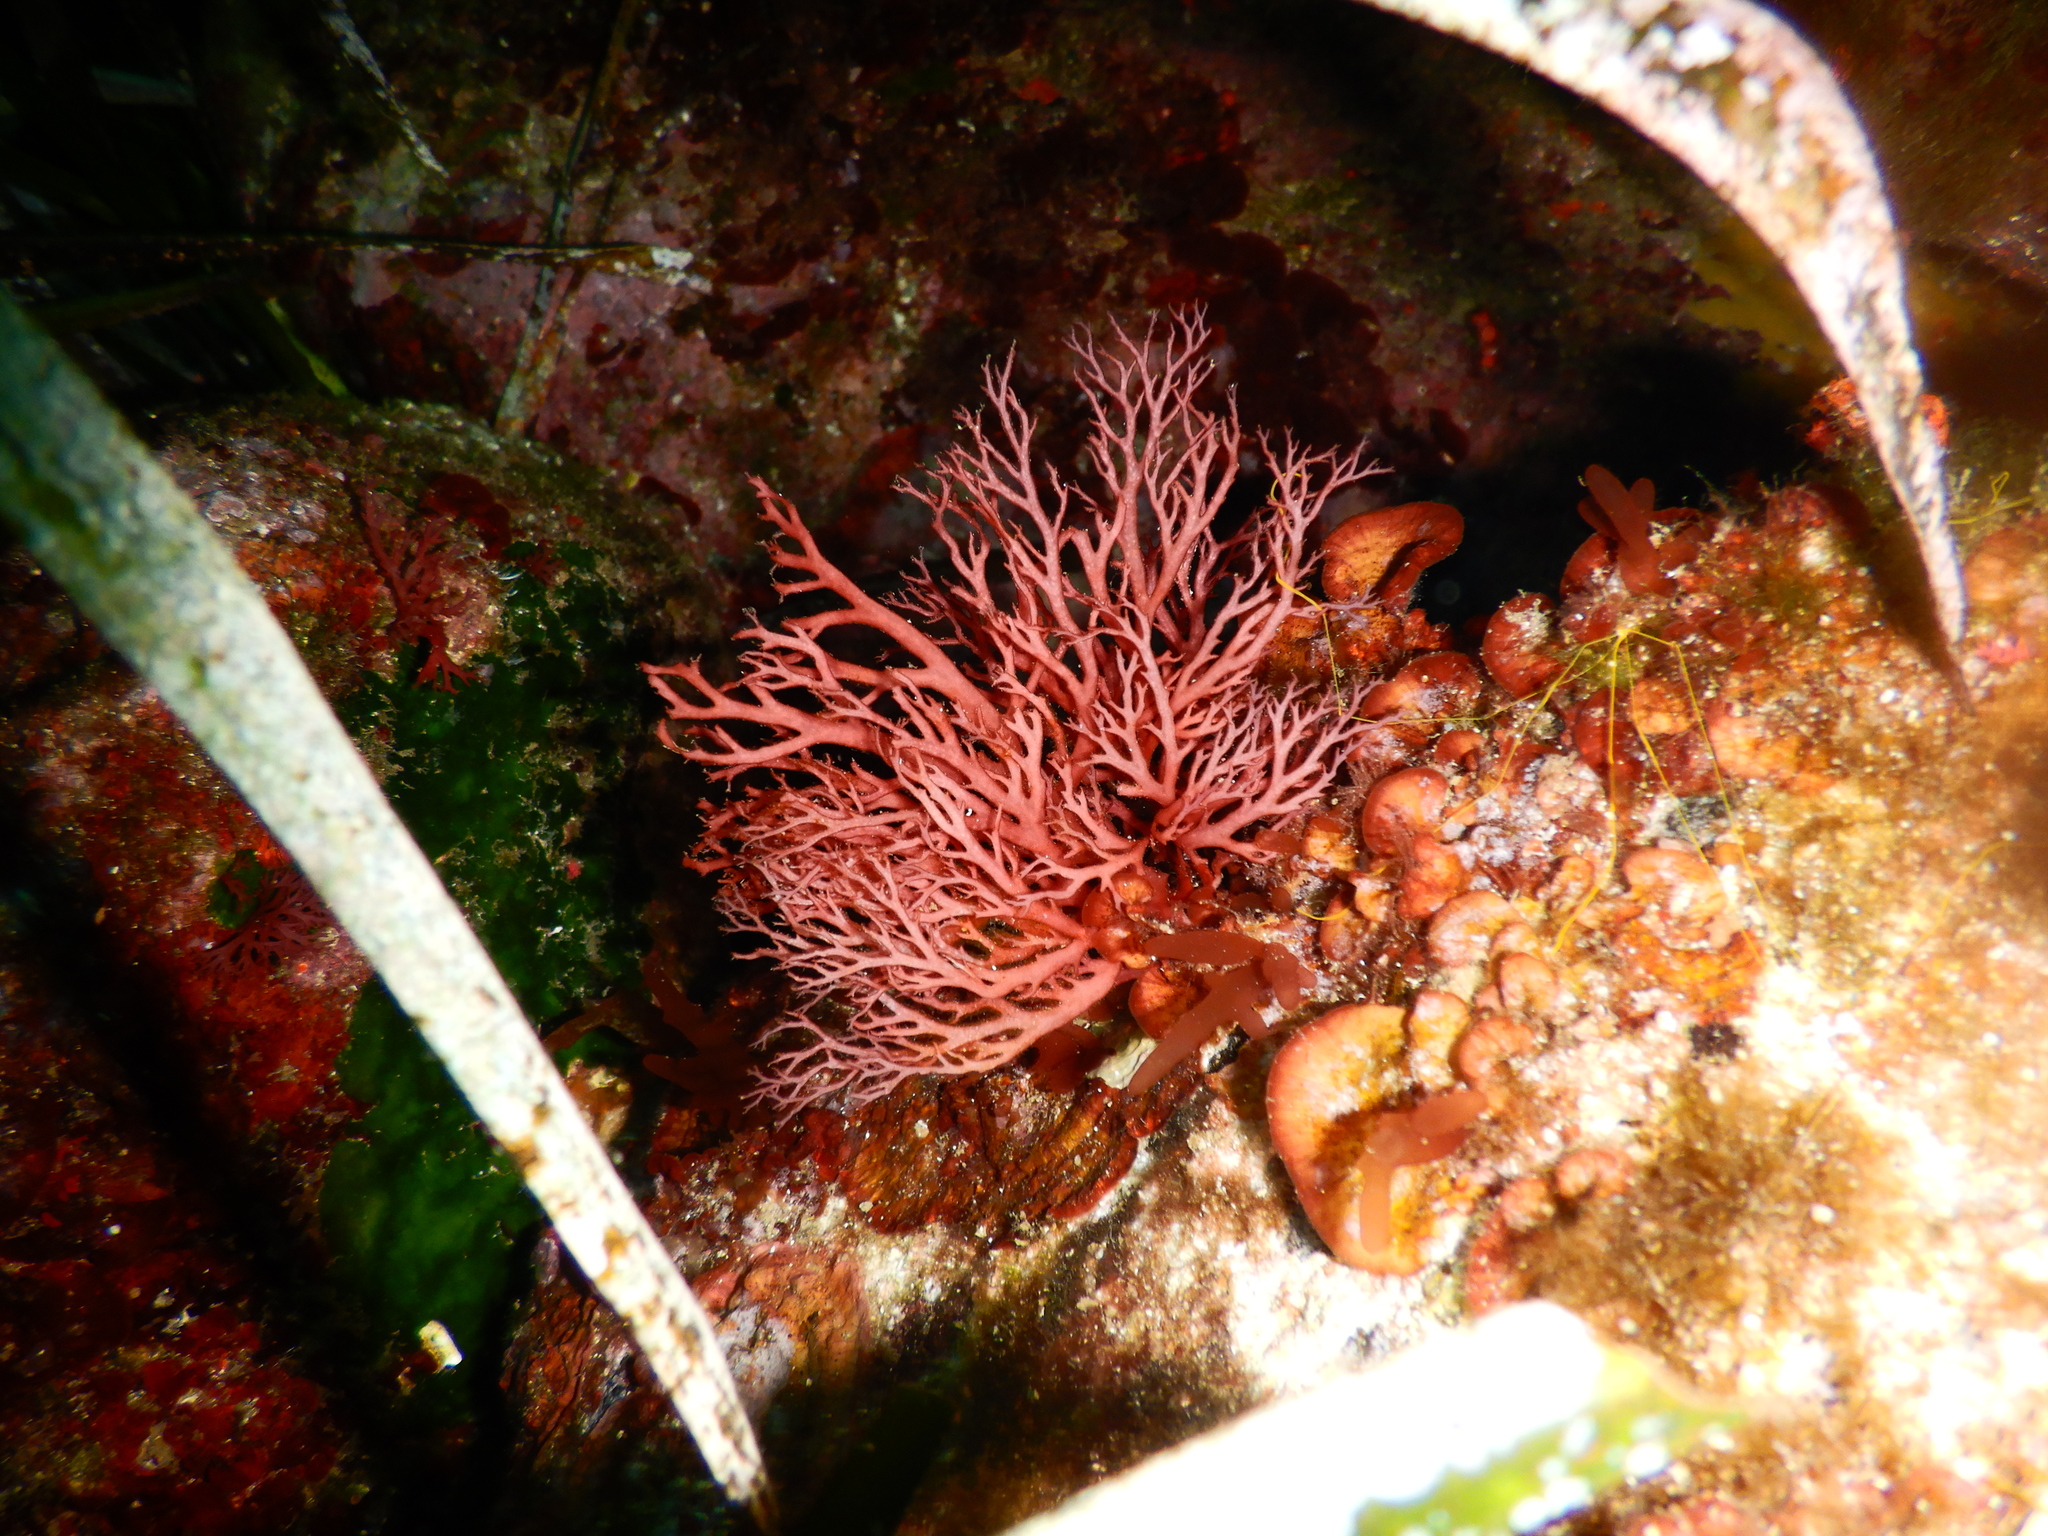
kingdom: Plantae
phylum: Rhodophyta
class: Florideophyceae
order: Gigartinales
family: Sphaerococcaceae
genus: Sphaerococcus
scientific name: Sphaerococcus coronopifolius
